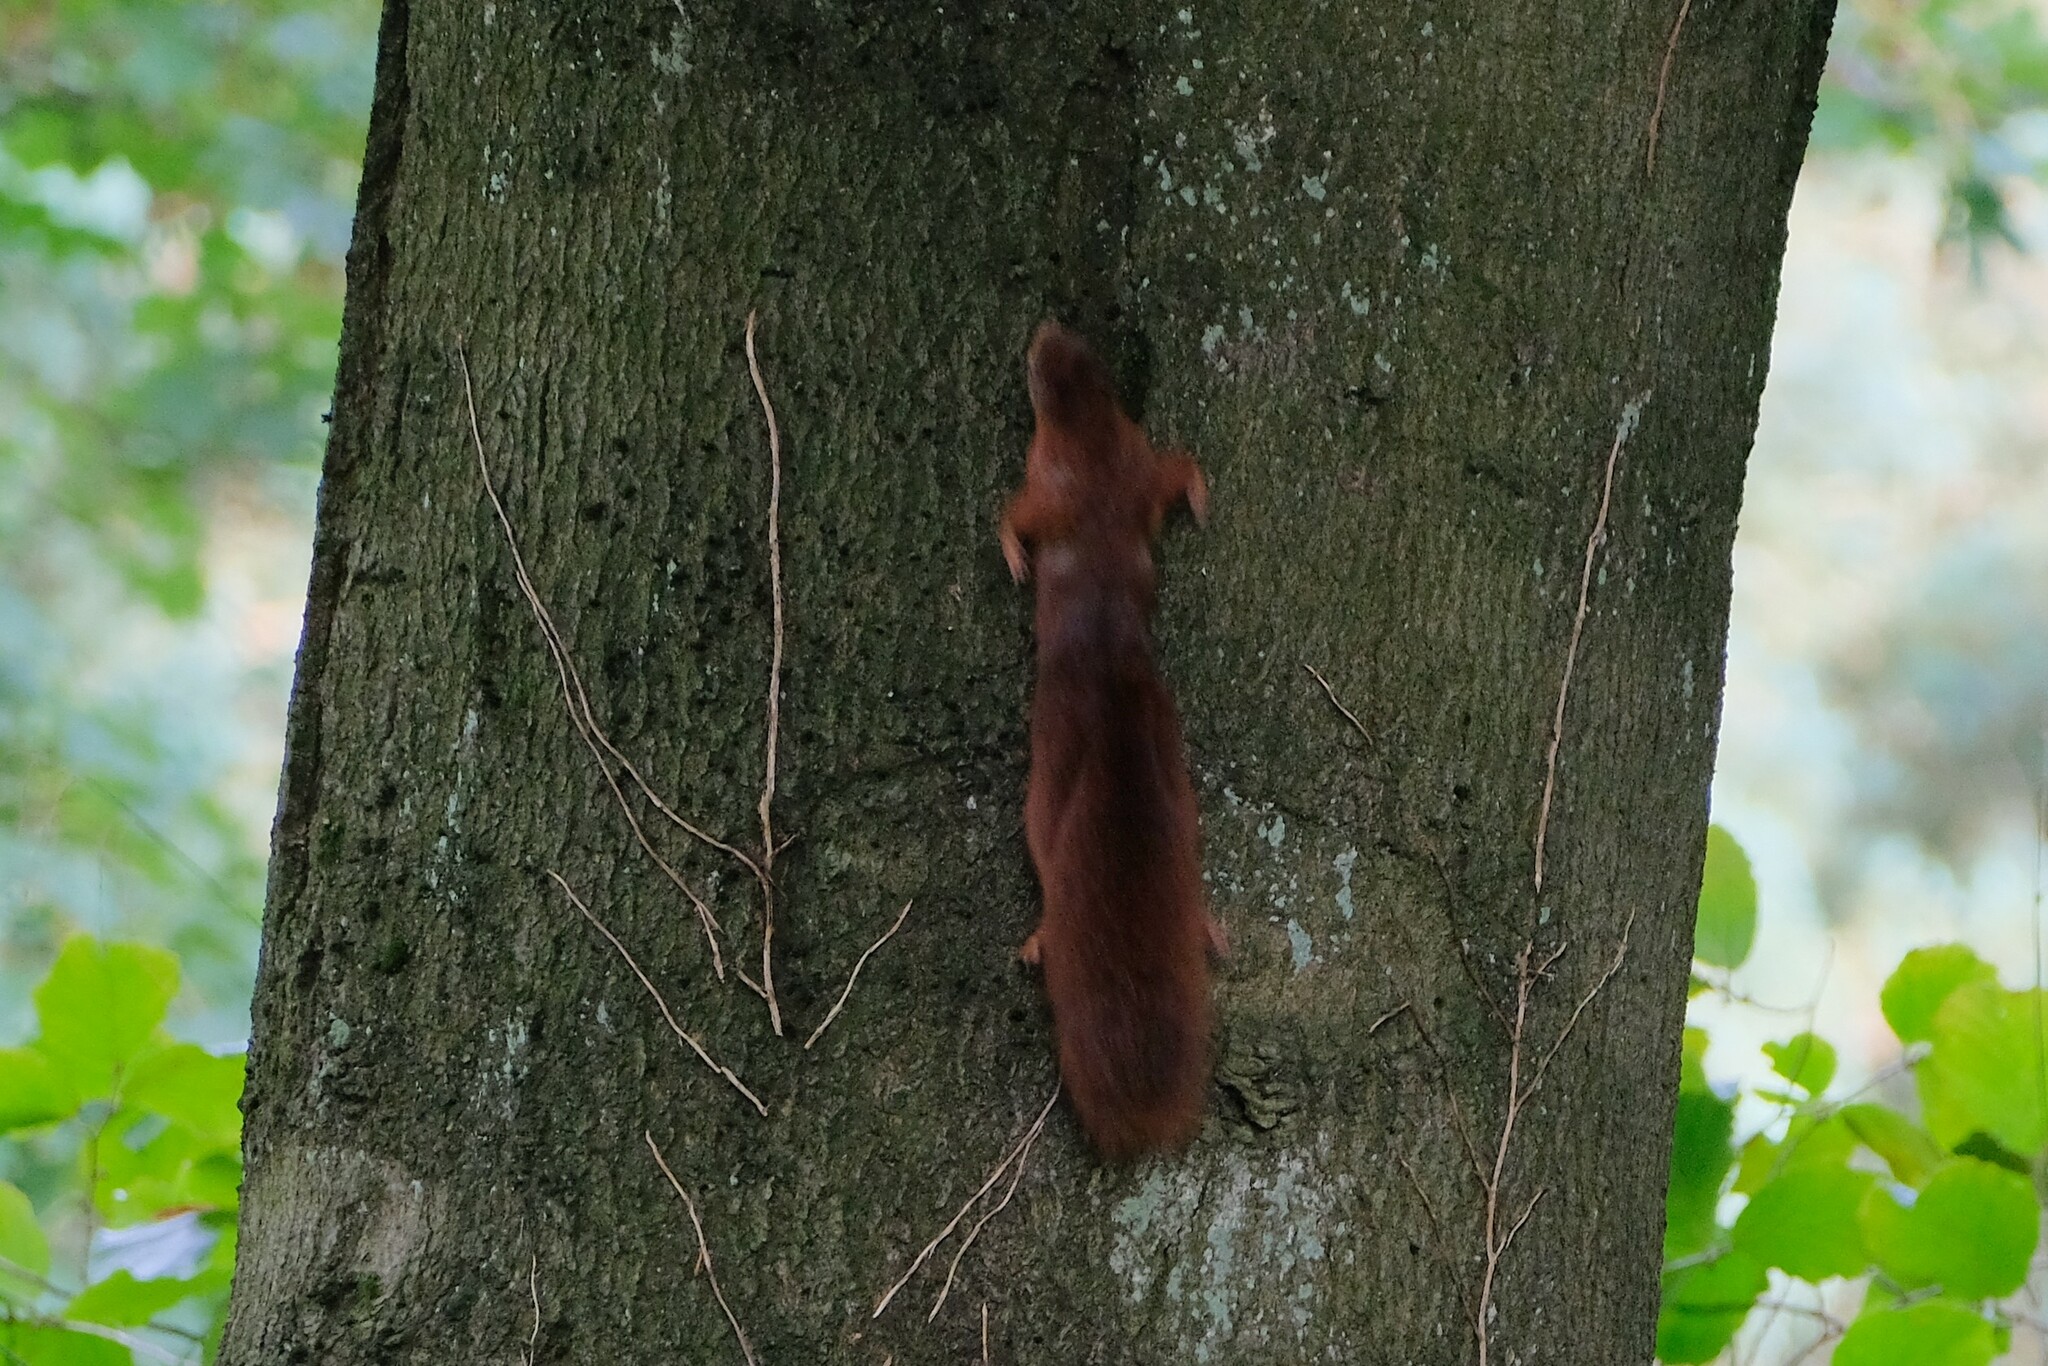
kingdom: Animalia
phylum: Chordata
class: Mammalia
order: Rodentia
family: Sciuridae
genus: Sciurus
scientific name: Sciurus vulgaris
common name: Eurasian red squirrel
